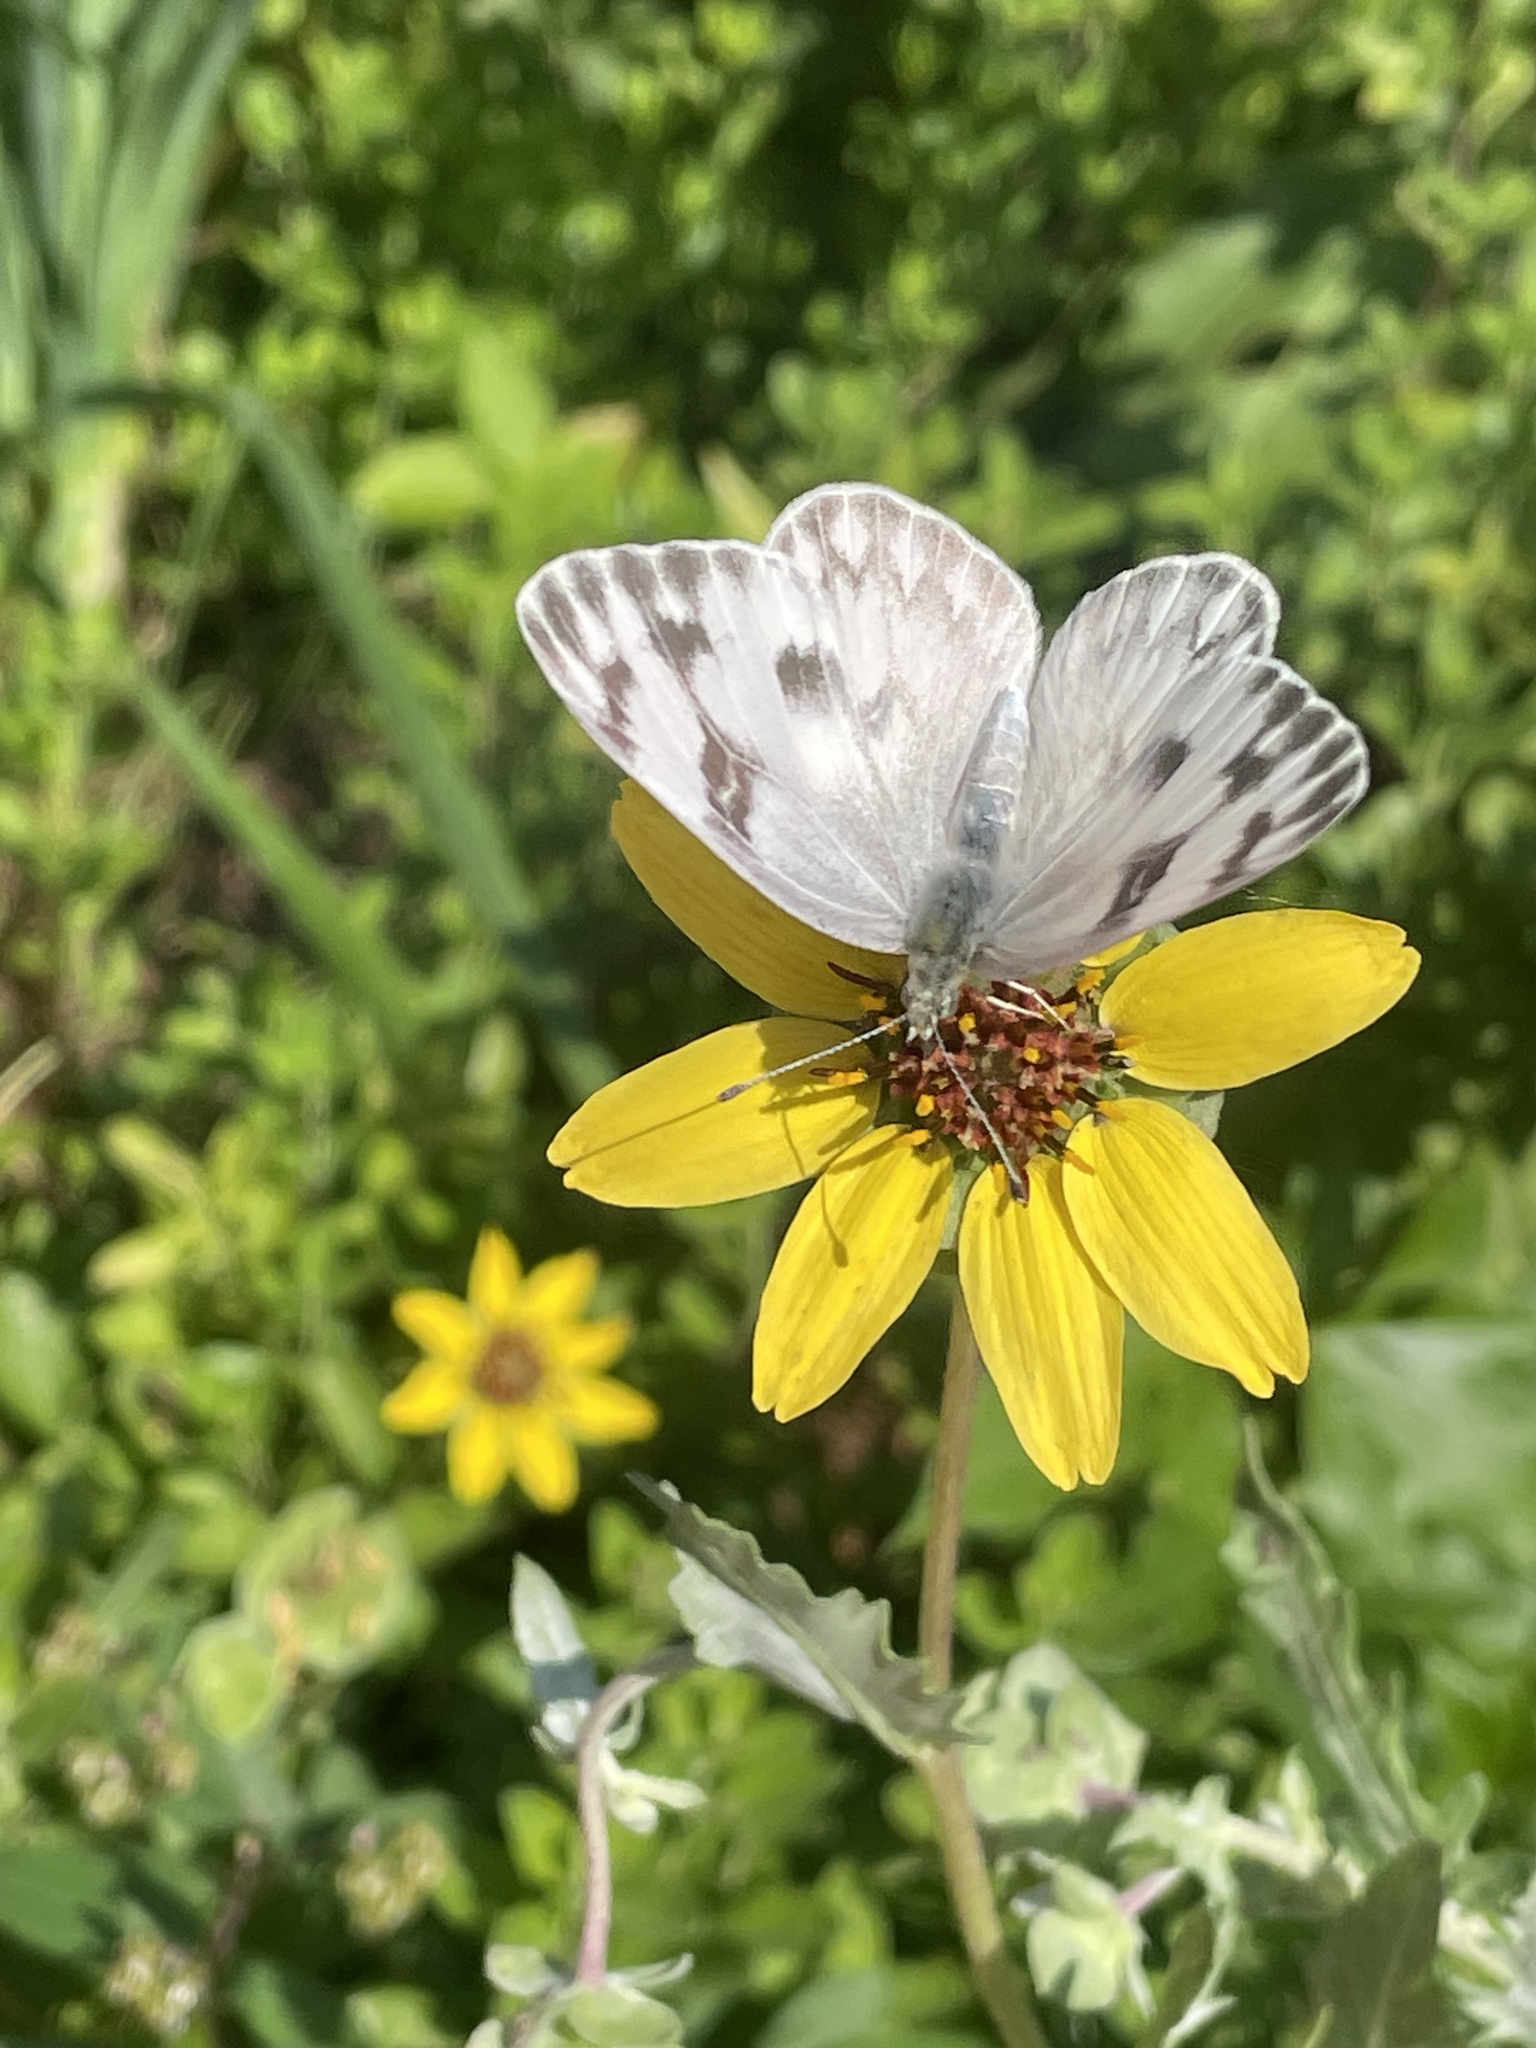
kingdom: Animalia
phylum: Arthropoda
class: Insecta
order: Lepidoptera
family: Pieridae
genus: Pontia
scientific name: Pontia protodice
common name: Checkered white
